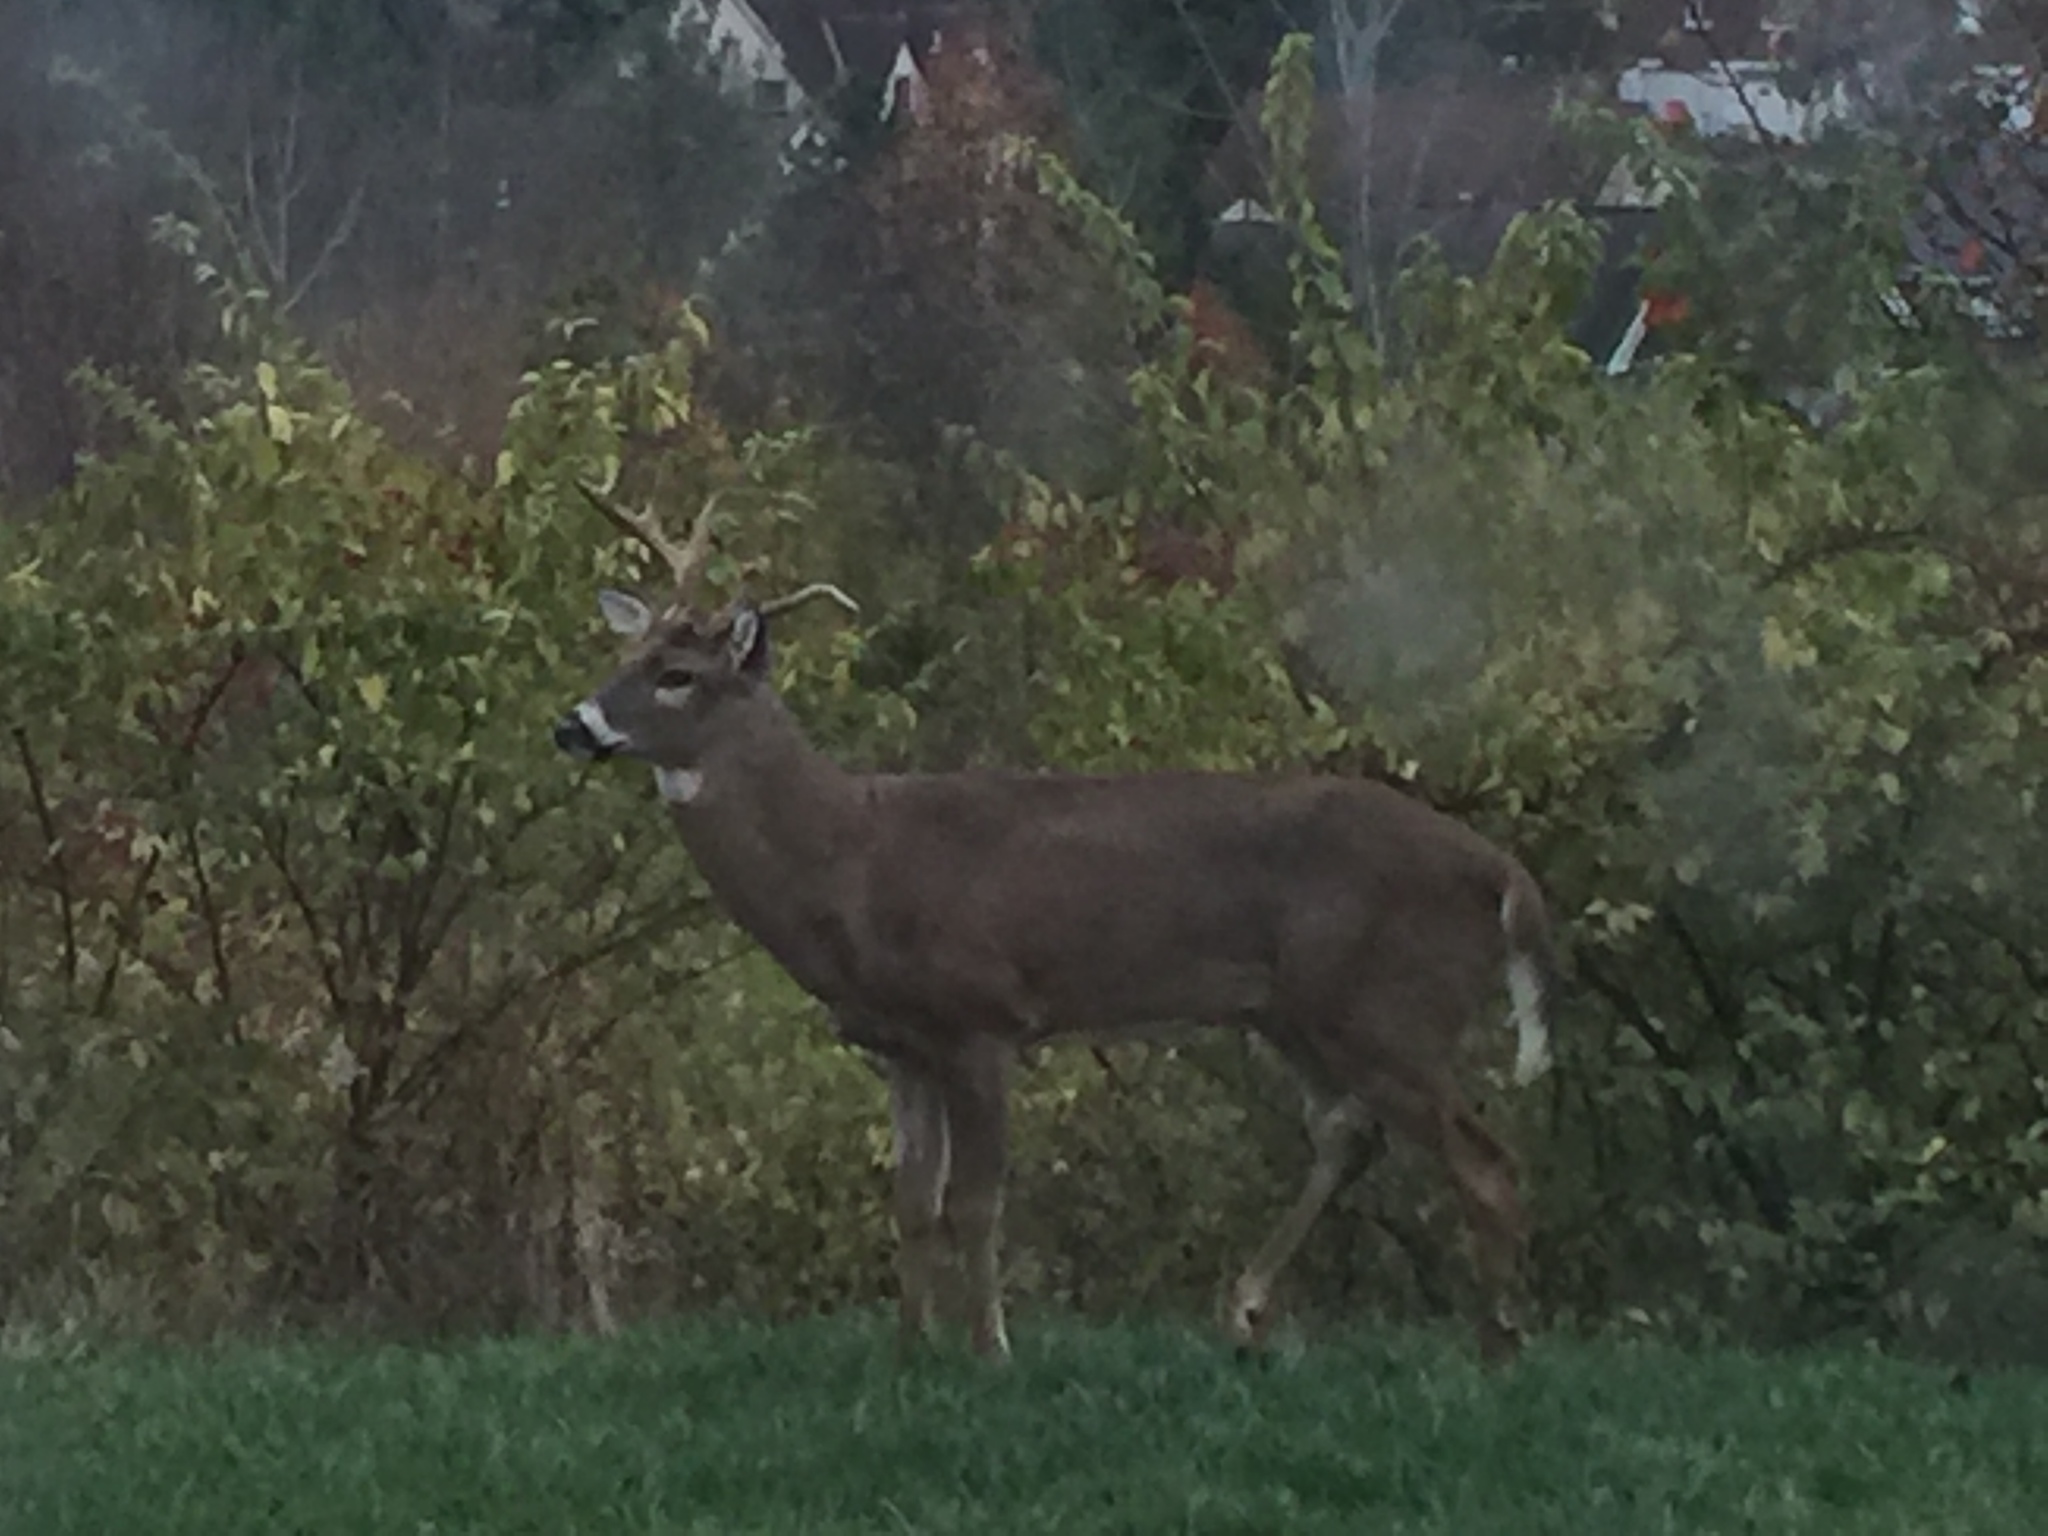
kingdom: Animalia
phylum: Chordata
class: Mammalia
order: Artiodactyla
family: Cervidae
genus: Odocoileus
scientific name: Odocoileus virginianus
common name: White-tailed deer
